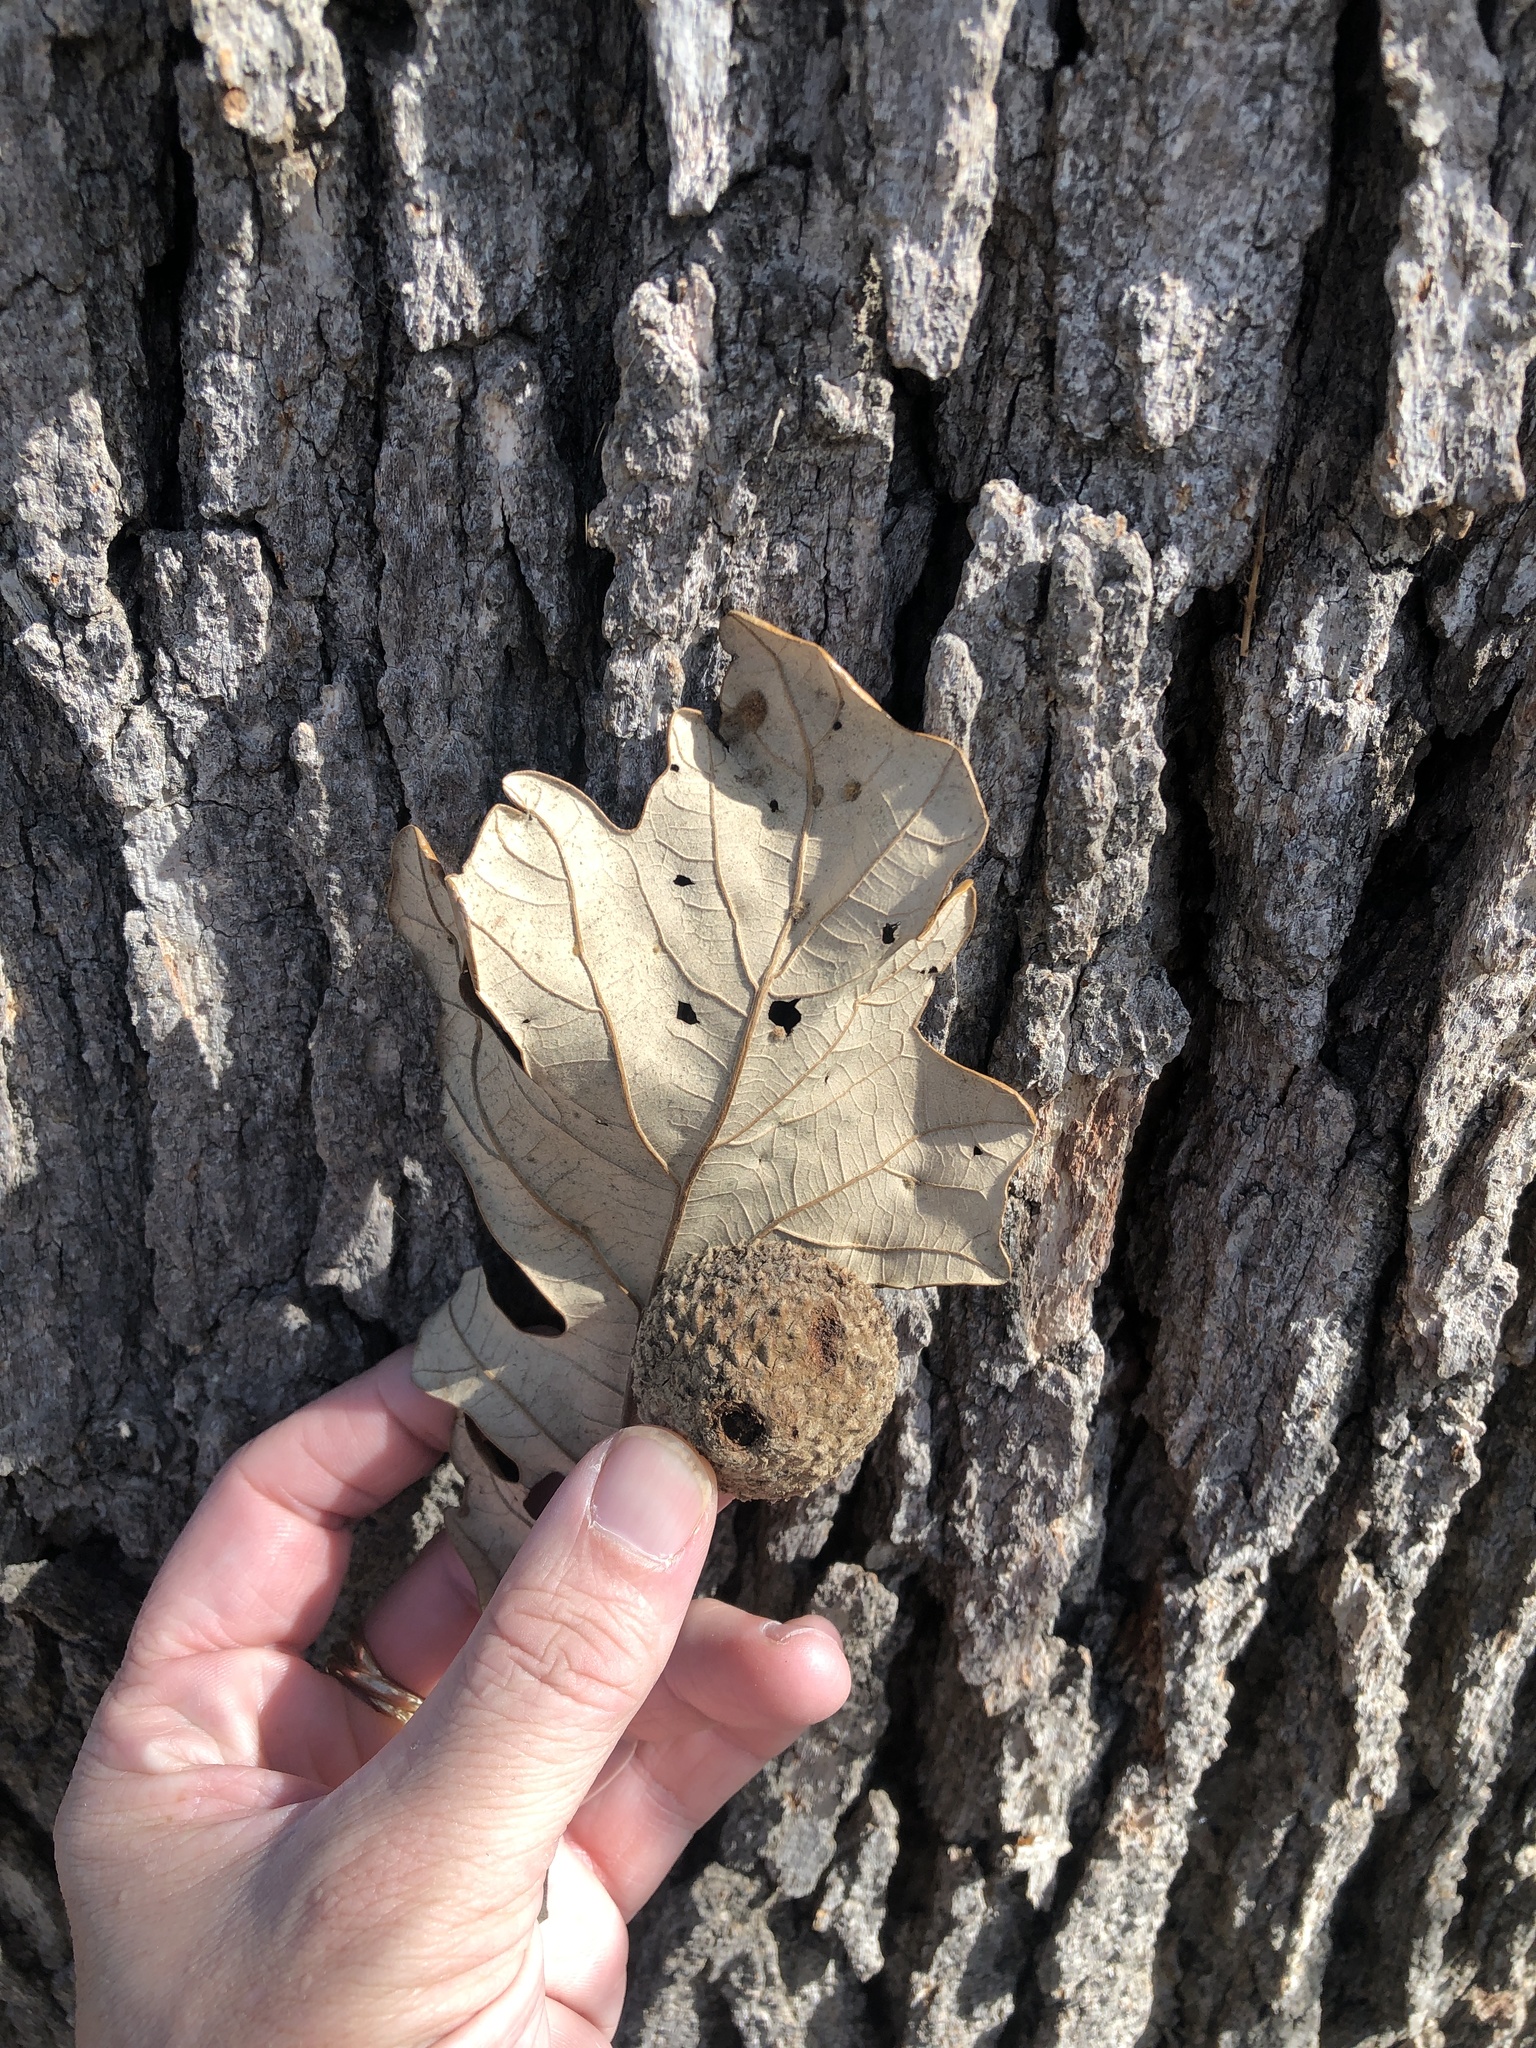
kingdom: Plantae
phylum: Tracheophyta
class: Magnoliopsida
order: Fagales
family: Fagaceae
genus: Quercus
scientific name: Quercus macrocarpa
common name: Bur oak
